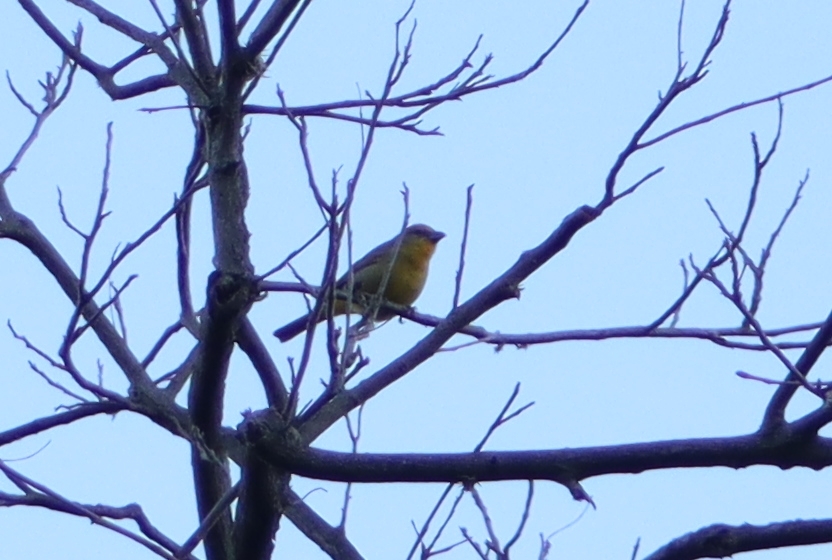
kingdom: Animalia
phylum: Chordata
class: Aves
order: Passeriformes
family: Cardinalidae
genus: Piranga
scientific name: Piranga flava
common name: Red tanager
